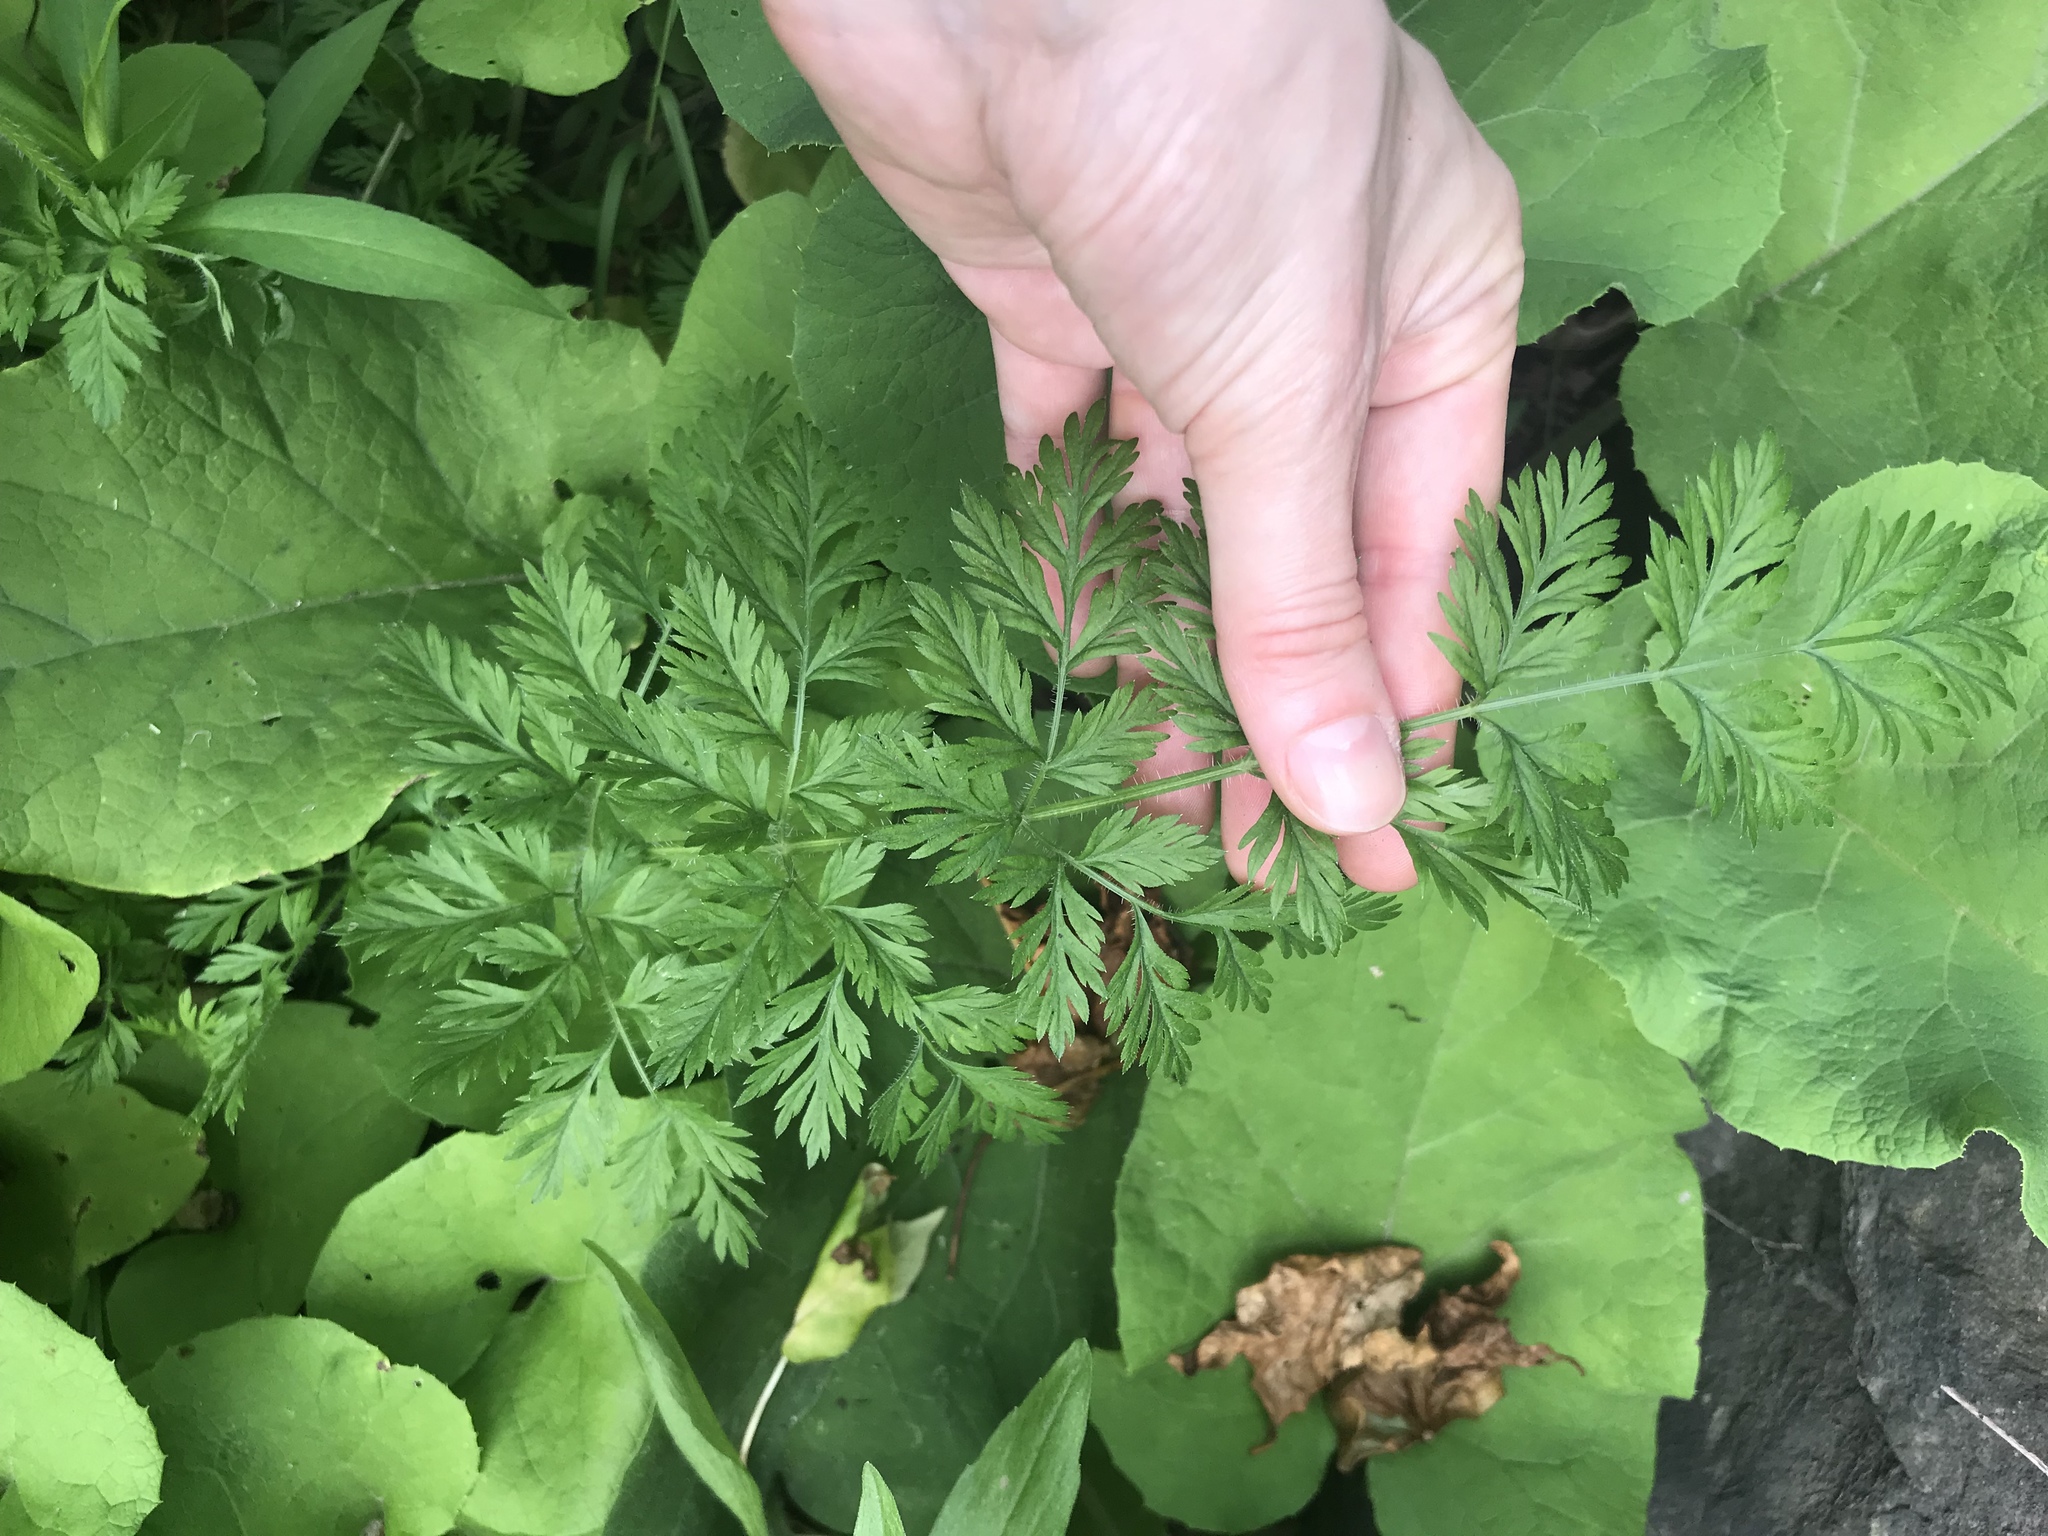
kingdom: Plantae
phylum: Tracheophyta
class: Magnoliopsida
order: Apiales
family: Apiaceae
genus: Daucus
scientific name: Daucus carota
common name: Wild carrot
